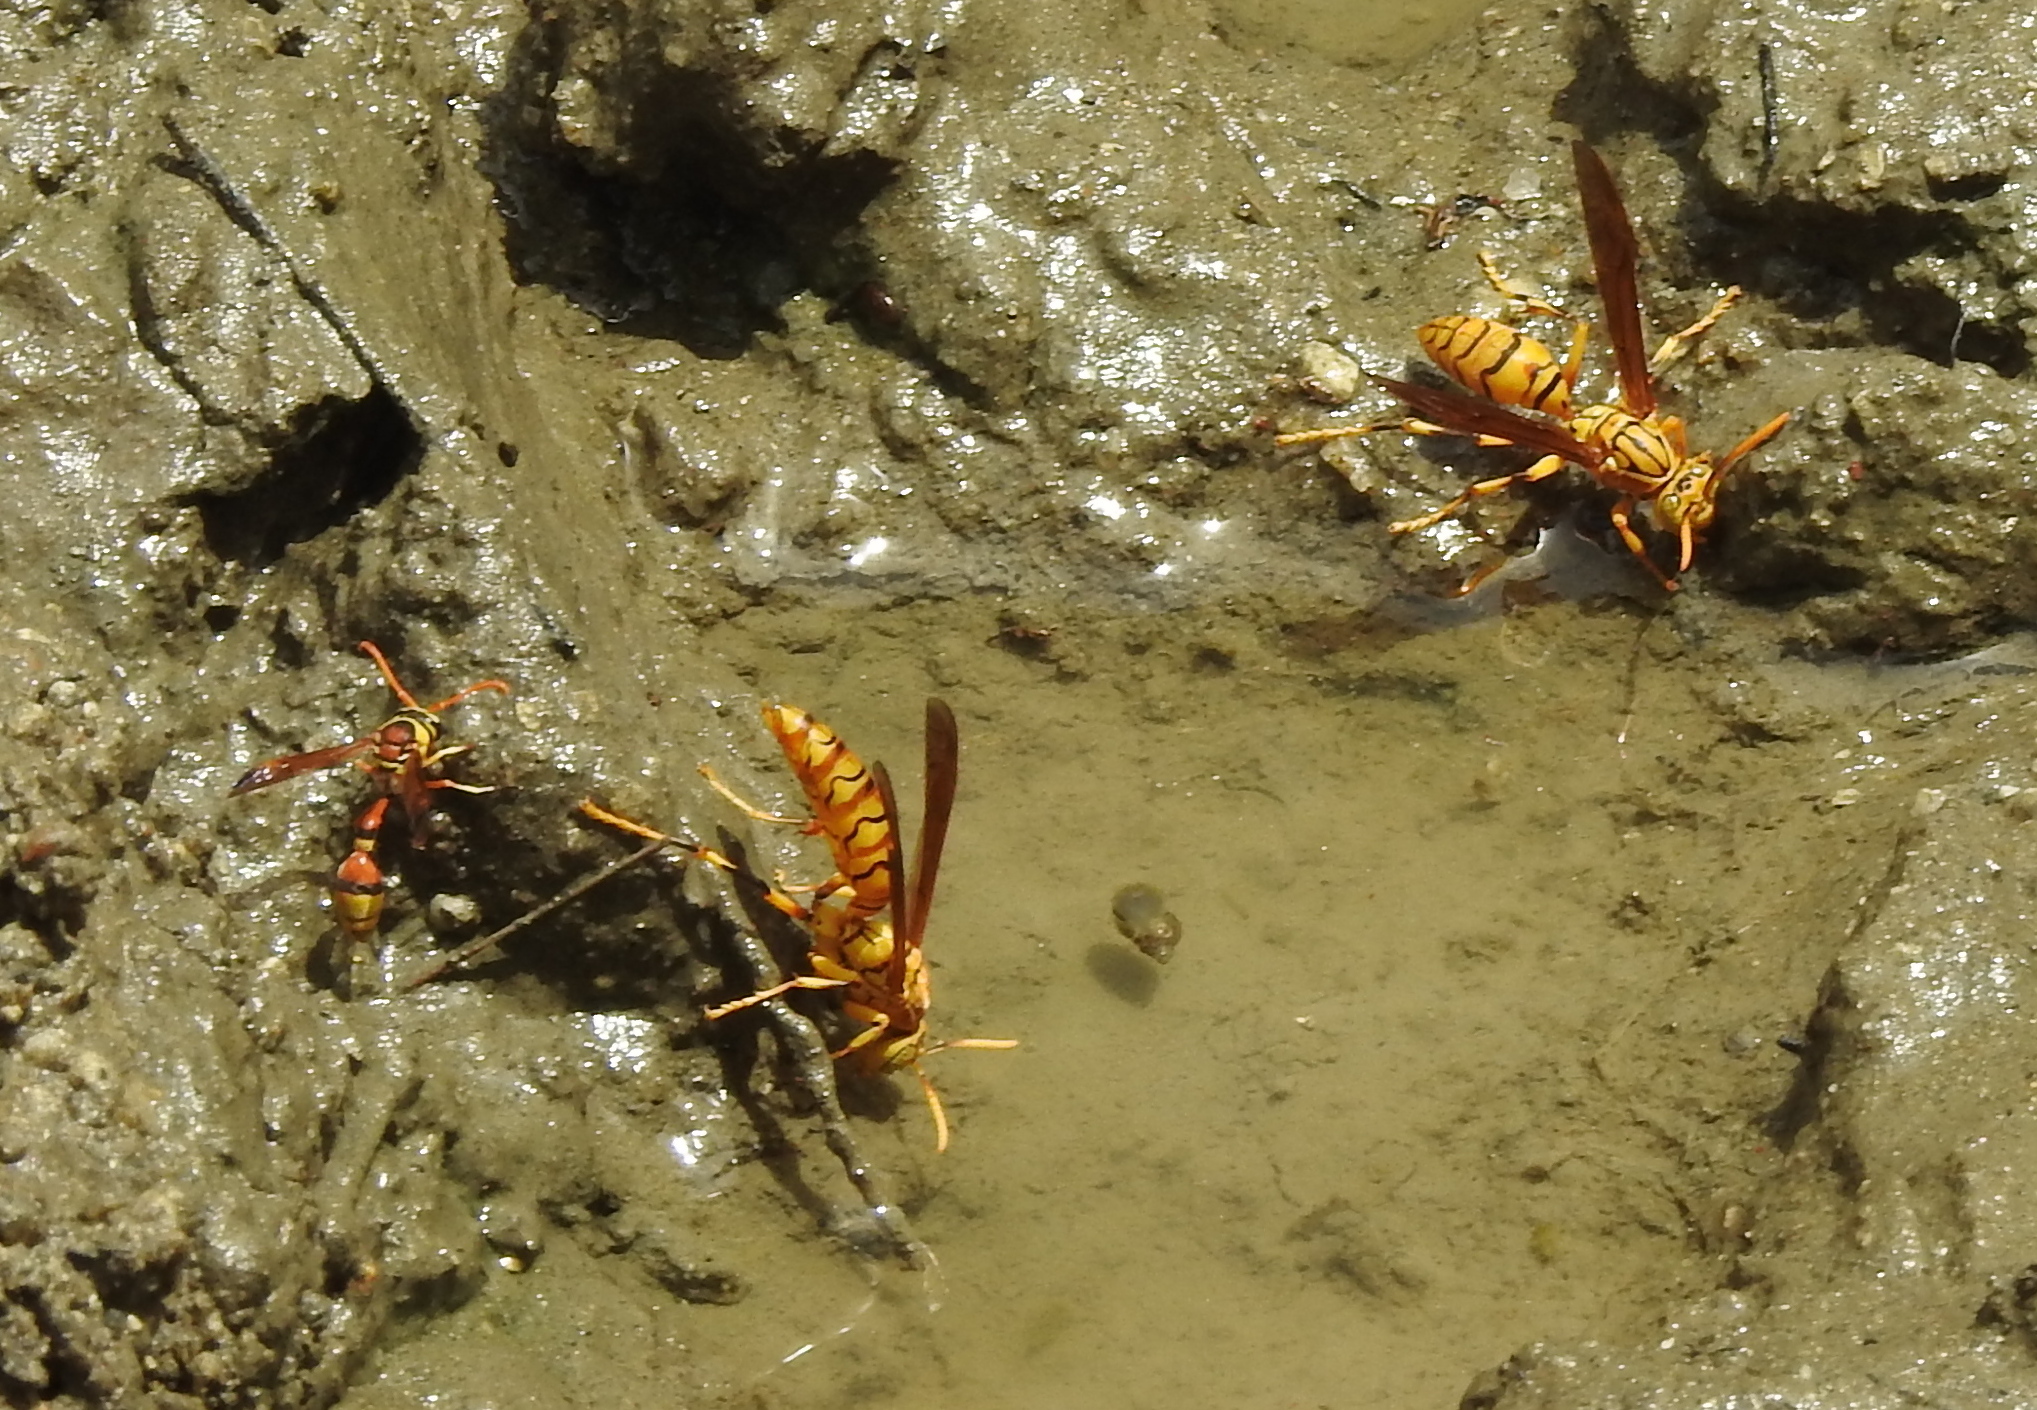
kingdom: Animalia
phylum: Arthropoda
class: Insecta
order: Hymenoptera
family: Eumenidae
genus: Polistes
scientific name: Polistes olivaceus
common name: Paper wasp
